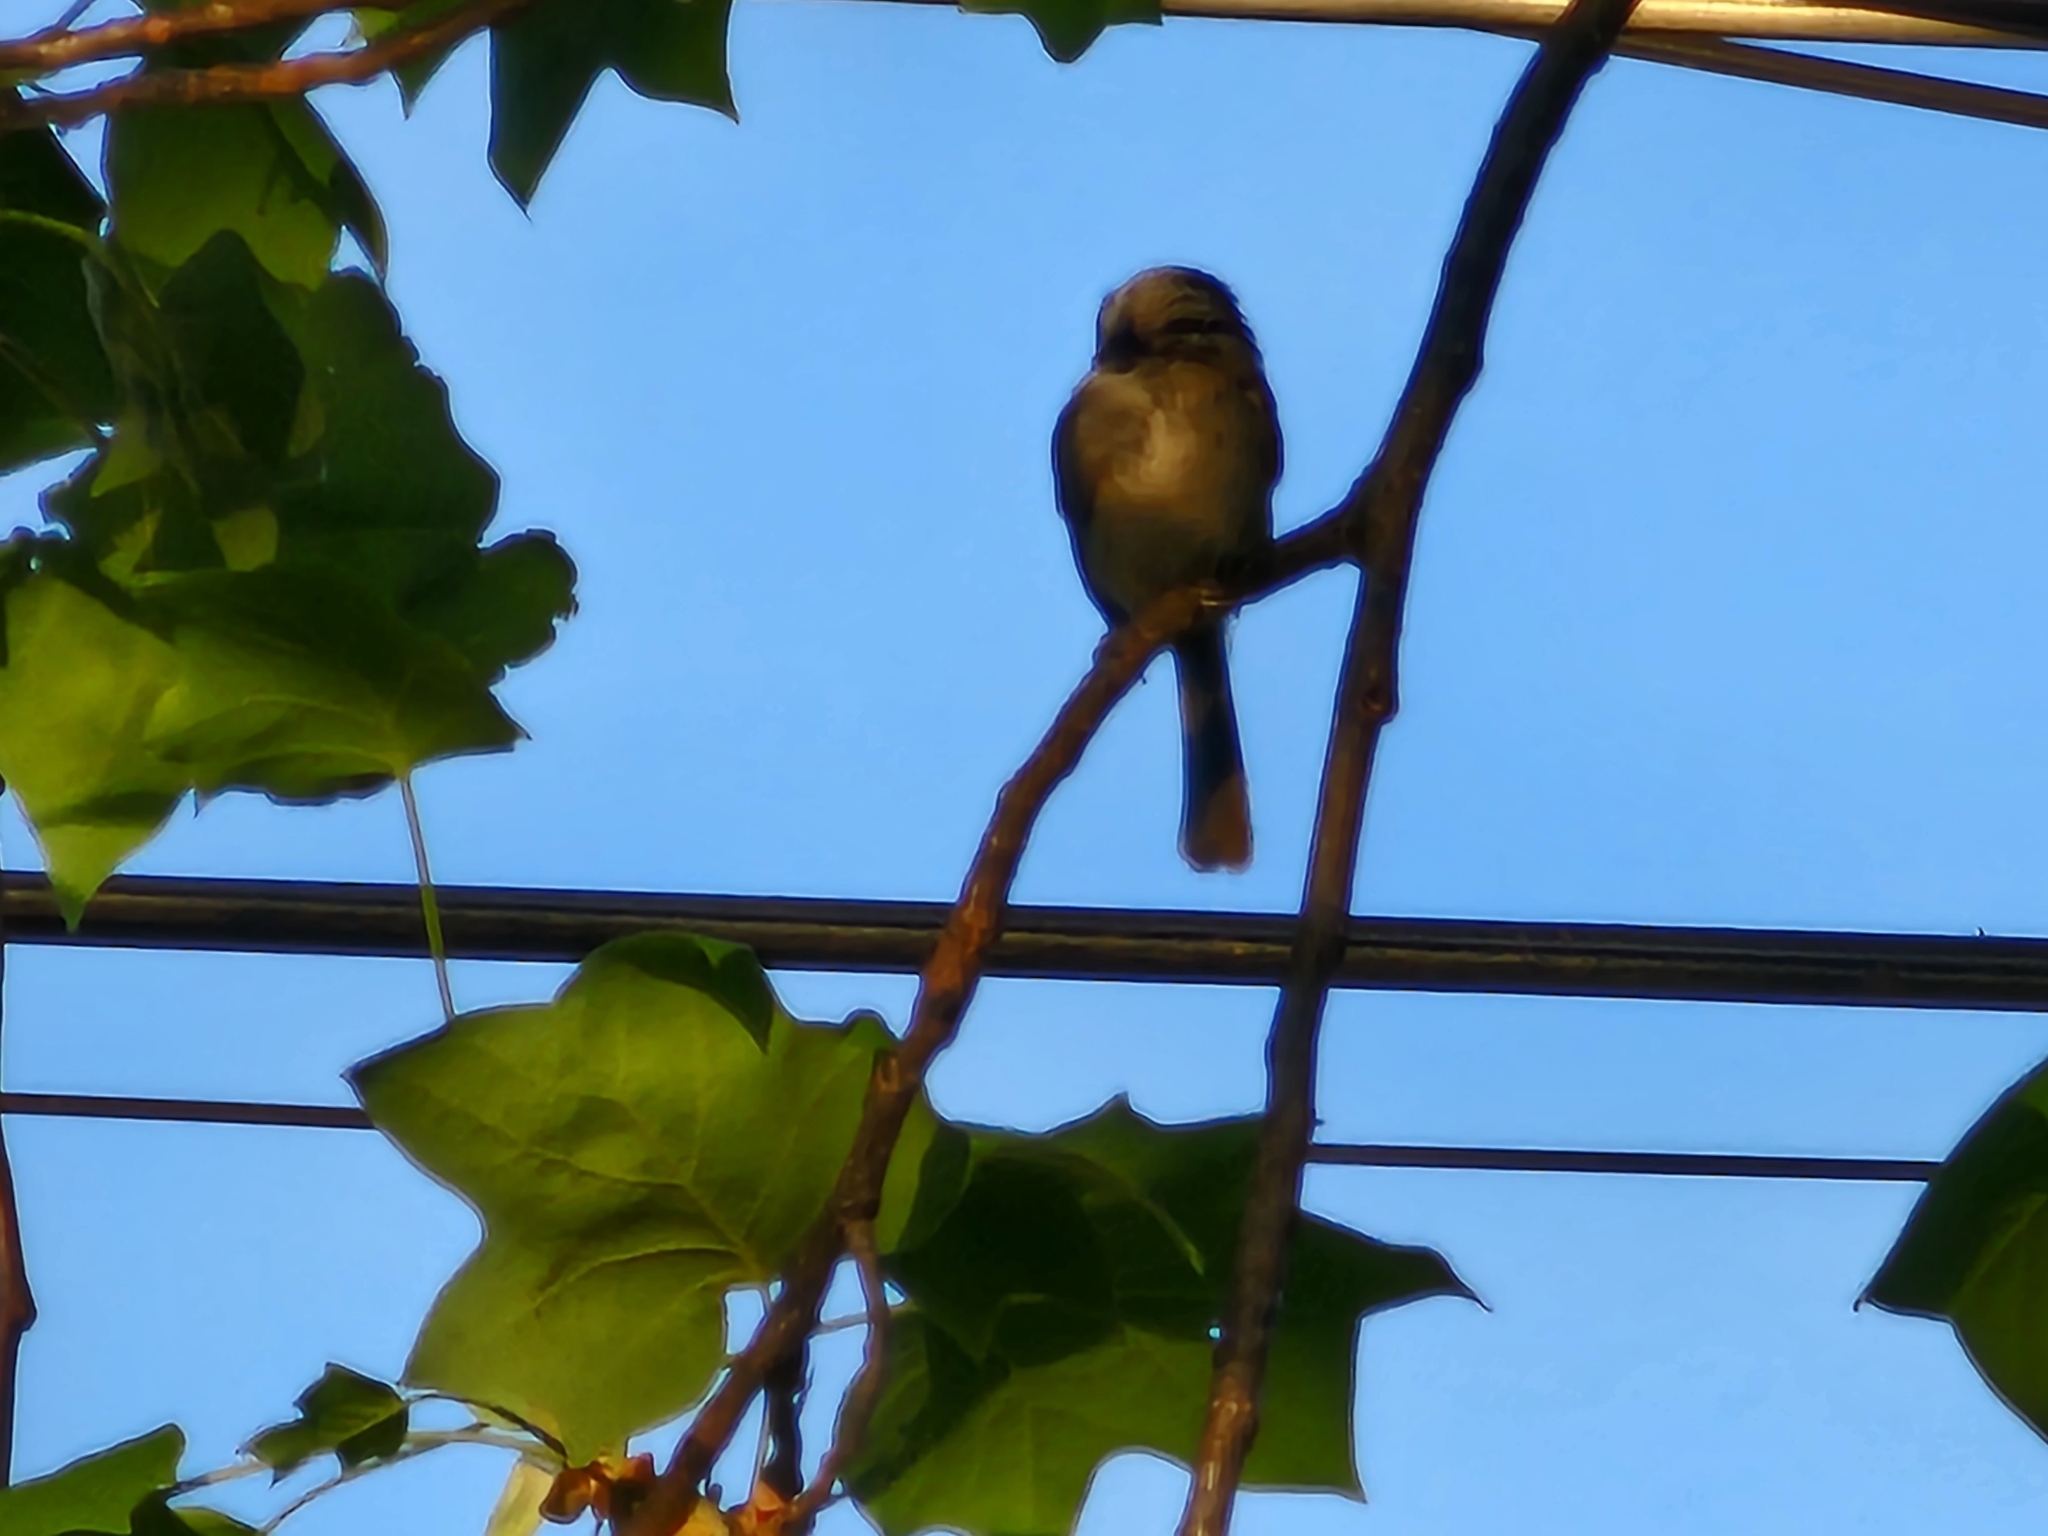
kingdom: Animalia
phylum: Chordata
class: Aves
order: Passeriformes
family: Paridae
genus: Poecile
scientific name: Poecile carolinensis
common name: Carolina chickadee
